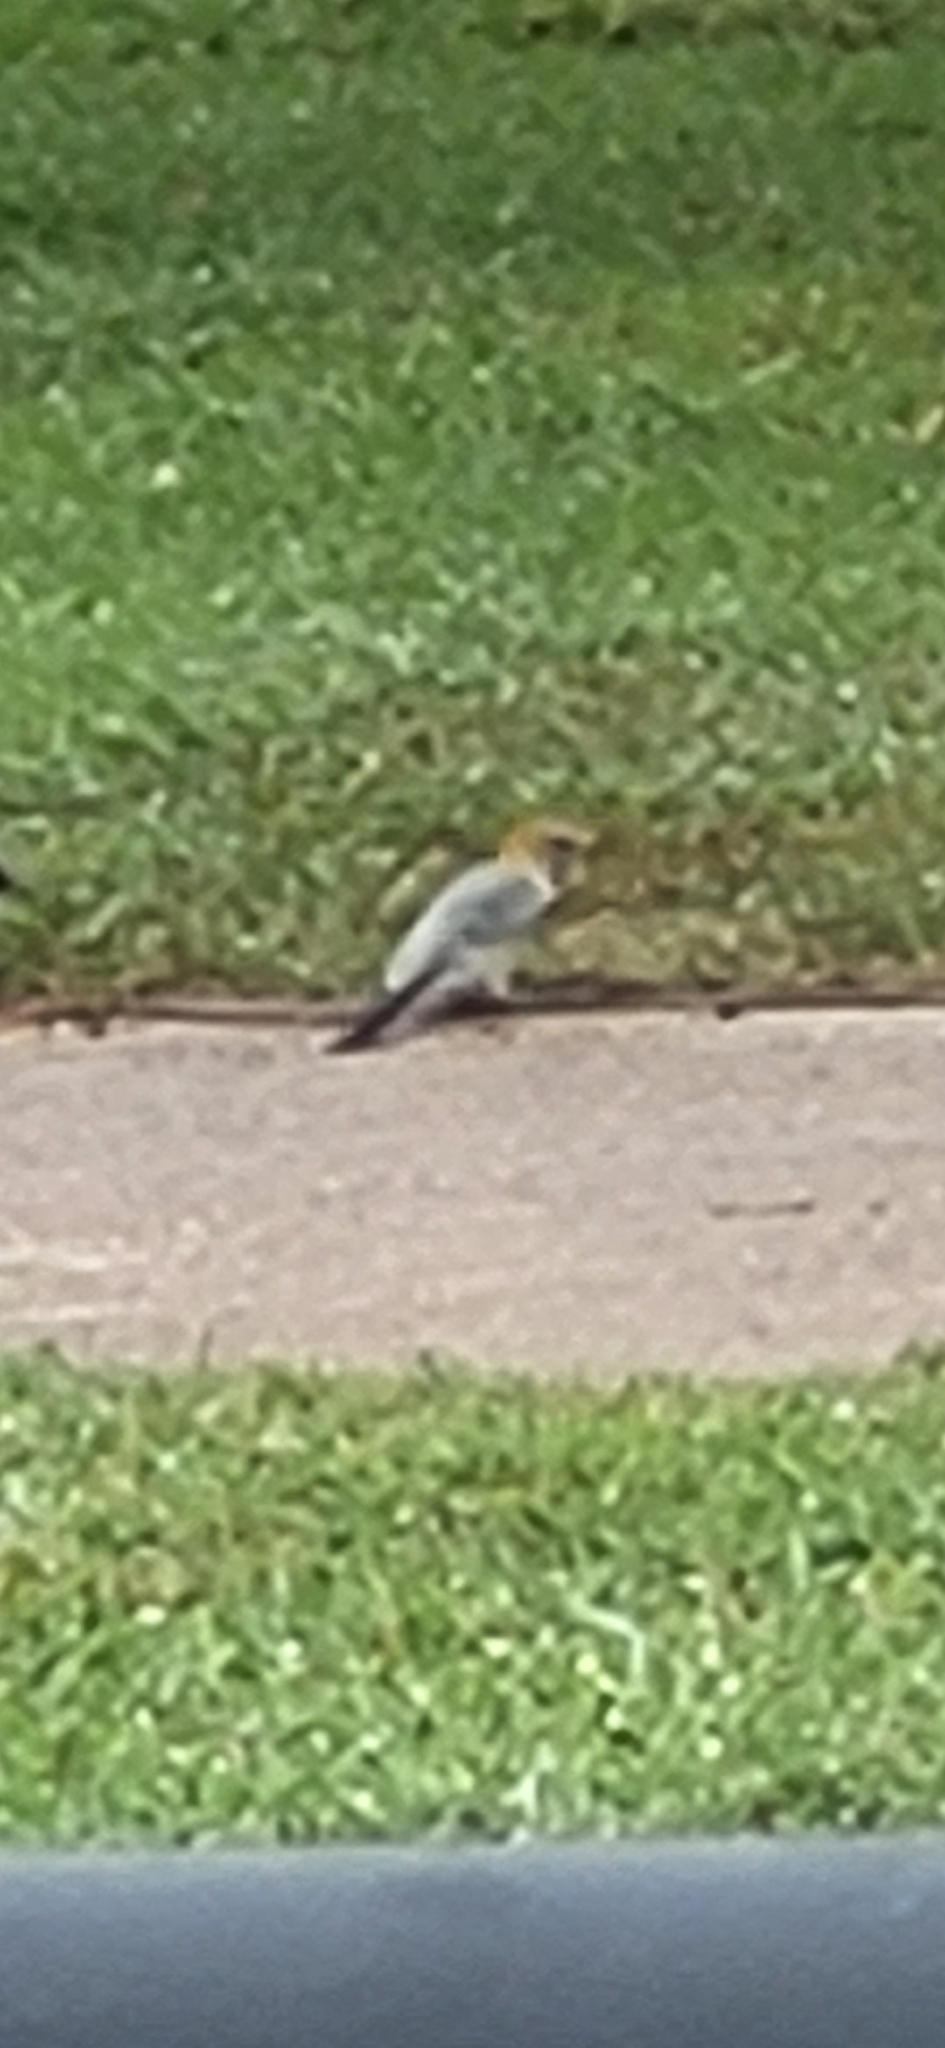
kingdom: Animalia
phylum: Chordata
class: Aves
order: Piciformes
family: Picidae
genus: Melanerpes
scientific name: Melanerpes aurifrons
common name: Golden-fronted woodpecker
